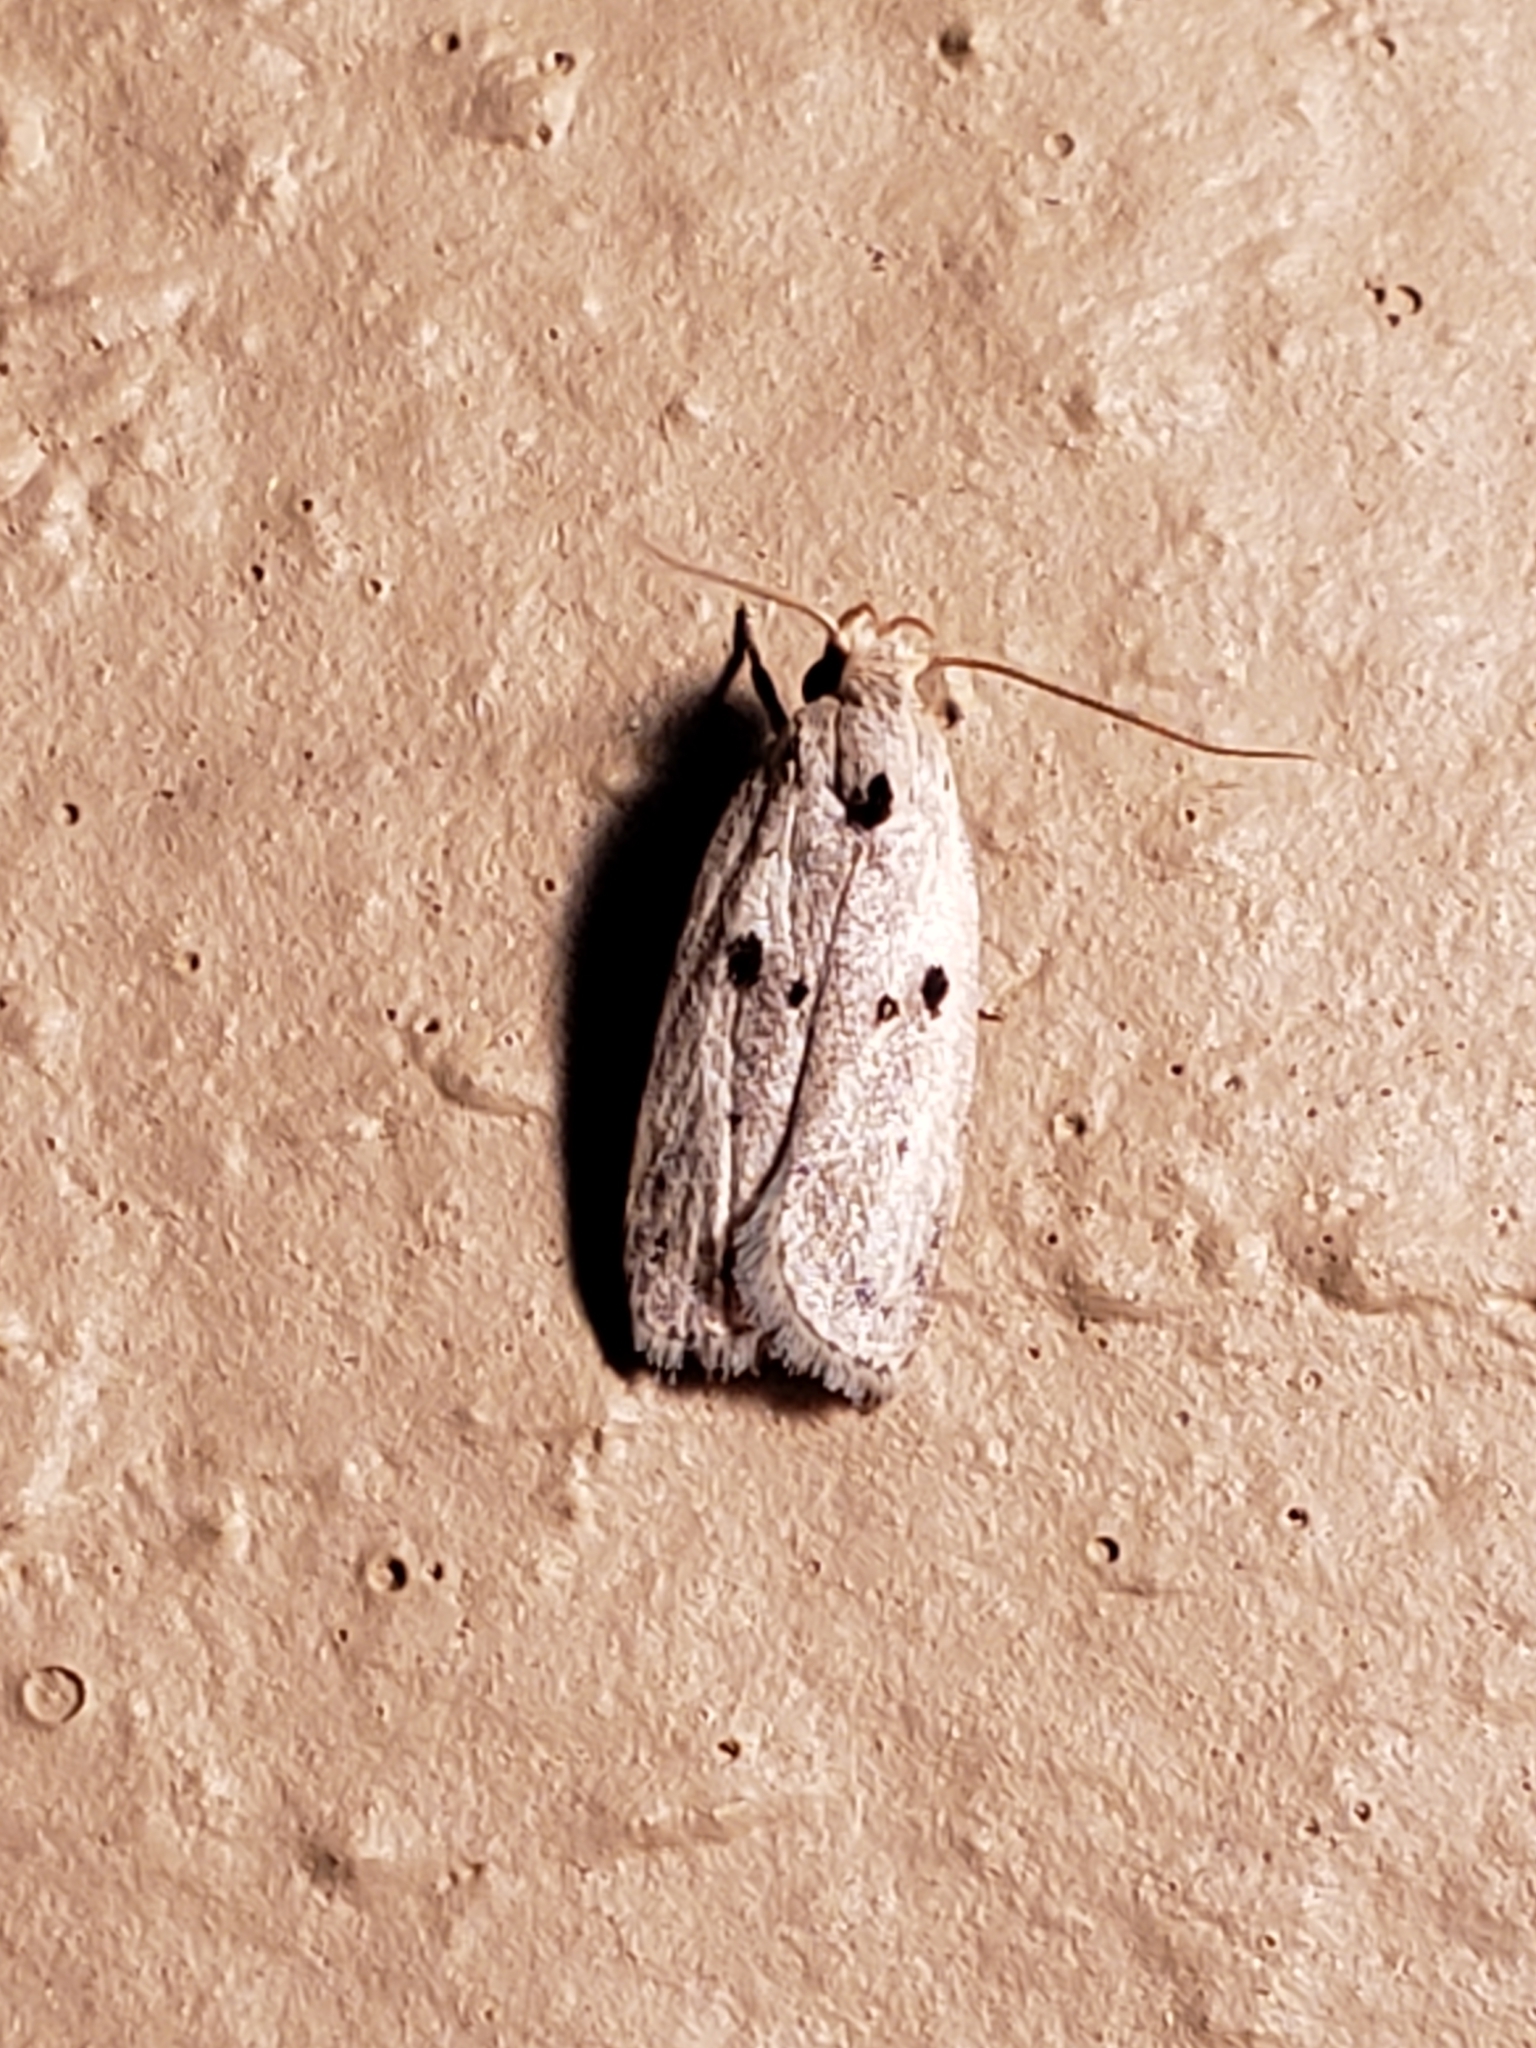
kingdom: Animalia
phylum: Arthropoda
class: Insecta
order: Lepidoptera
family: Peleopodidae
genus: Scythropiodes
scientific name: Scythropiodes issikii
